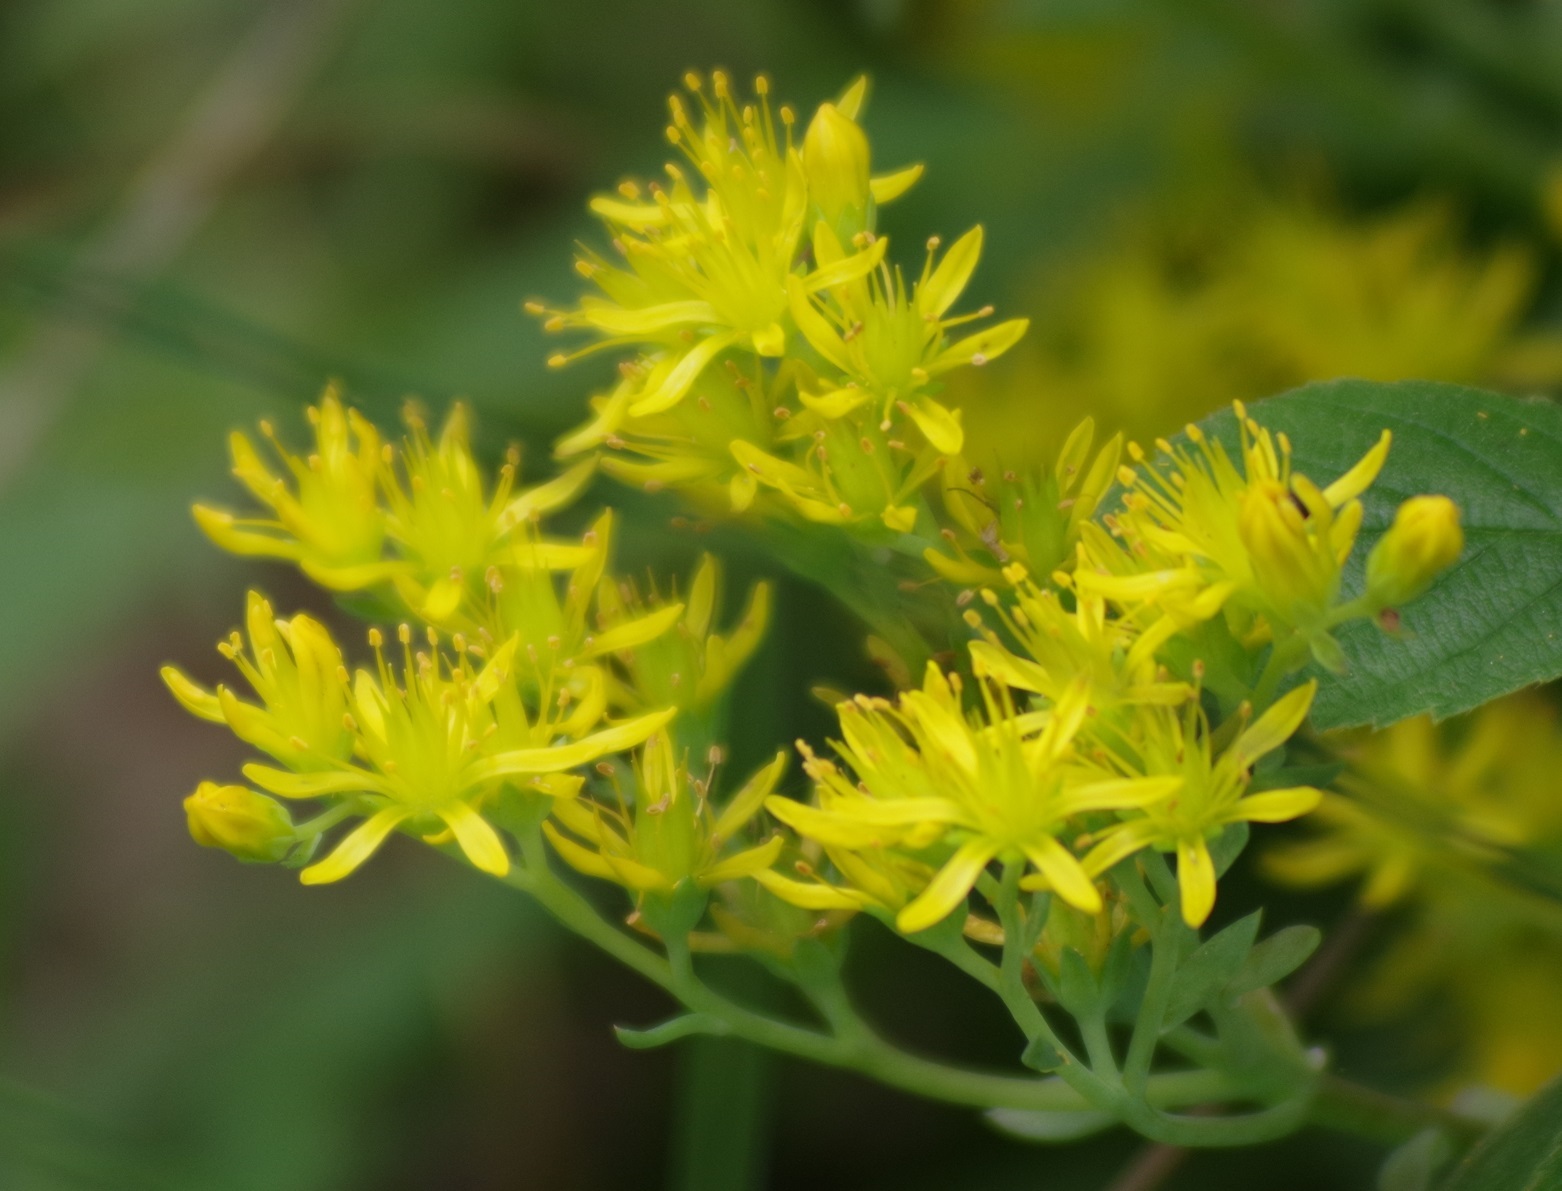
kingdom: Plantae
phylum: Tracheophyta
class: Magnoliopsida
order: Saxifragales
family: Crassulaceae
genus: Petrosedum
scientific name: Petrosedum rupestre
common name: Jenny's stonecrop
